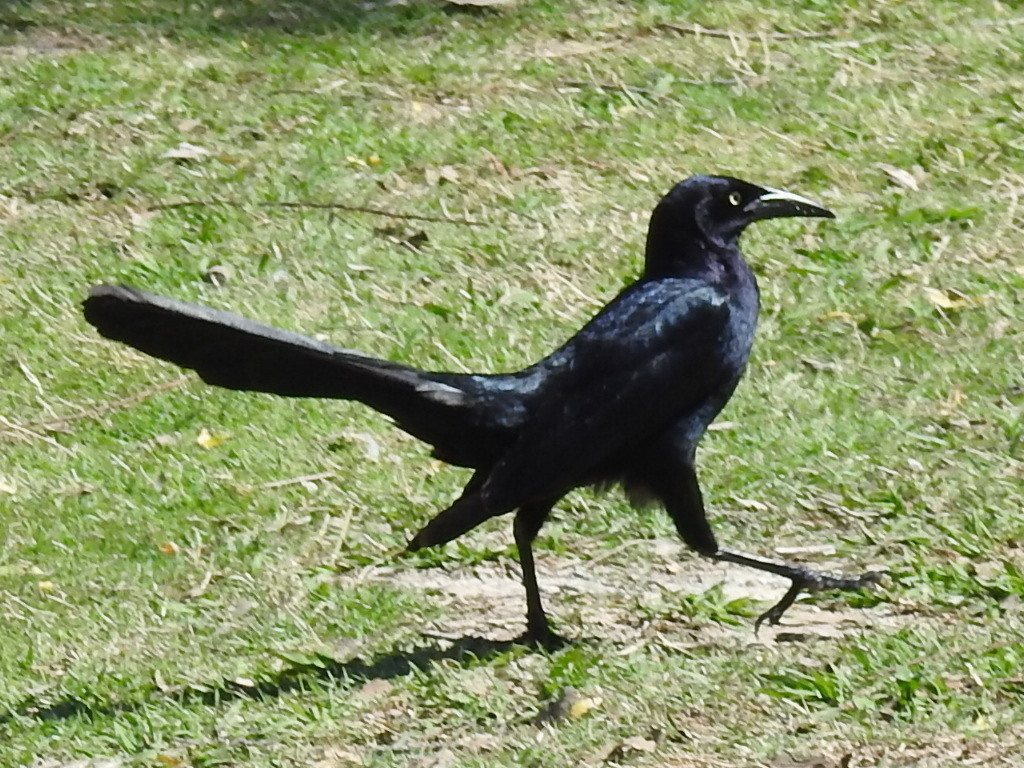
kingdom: Animalia
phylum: Chordata
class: Aves
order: Passeriformes
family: Icteridae
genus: Quiscalus
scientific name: Quiscalus mexicanus
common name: Great-tailed grackle
